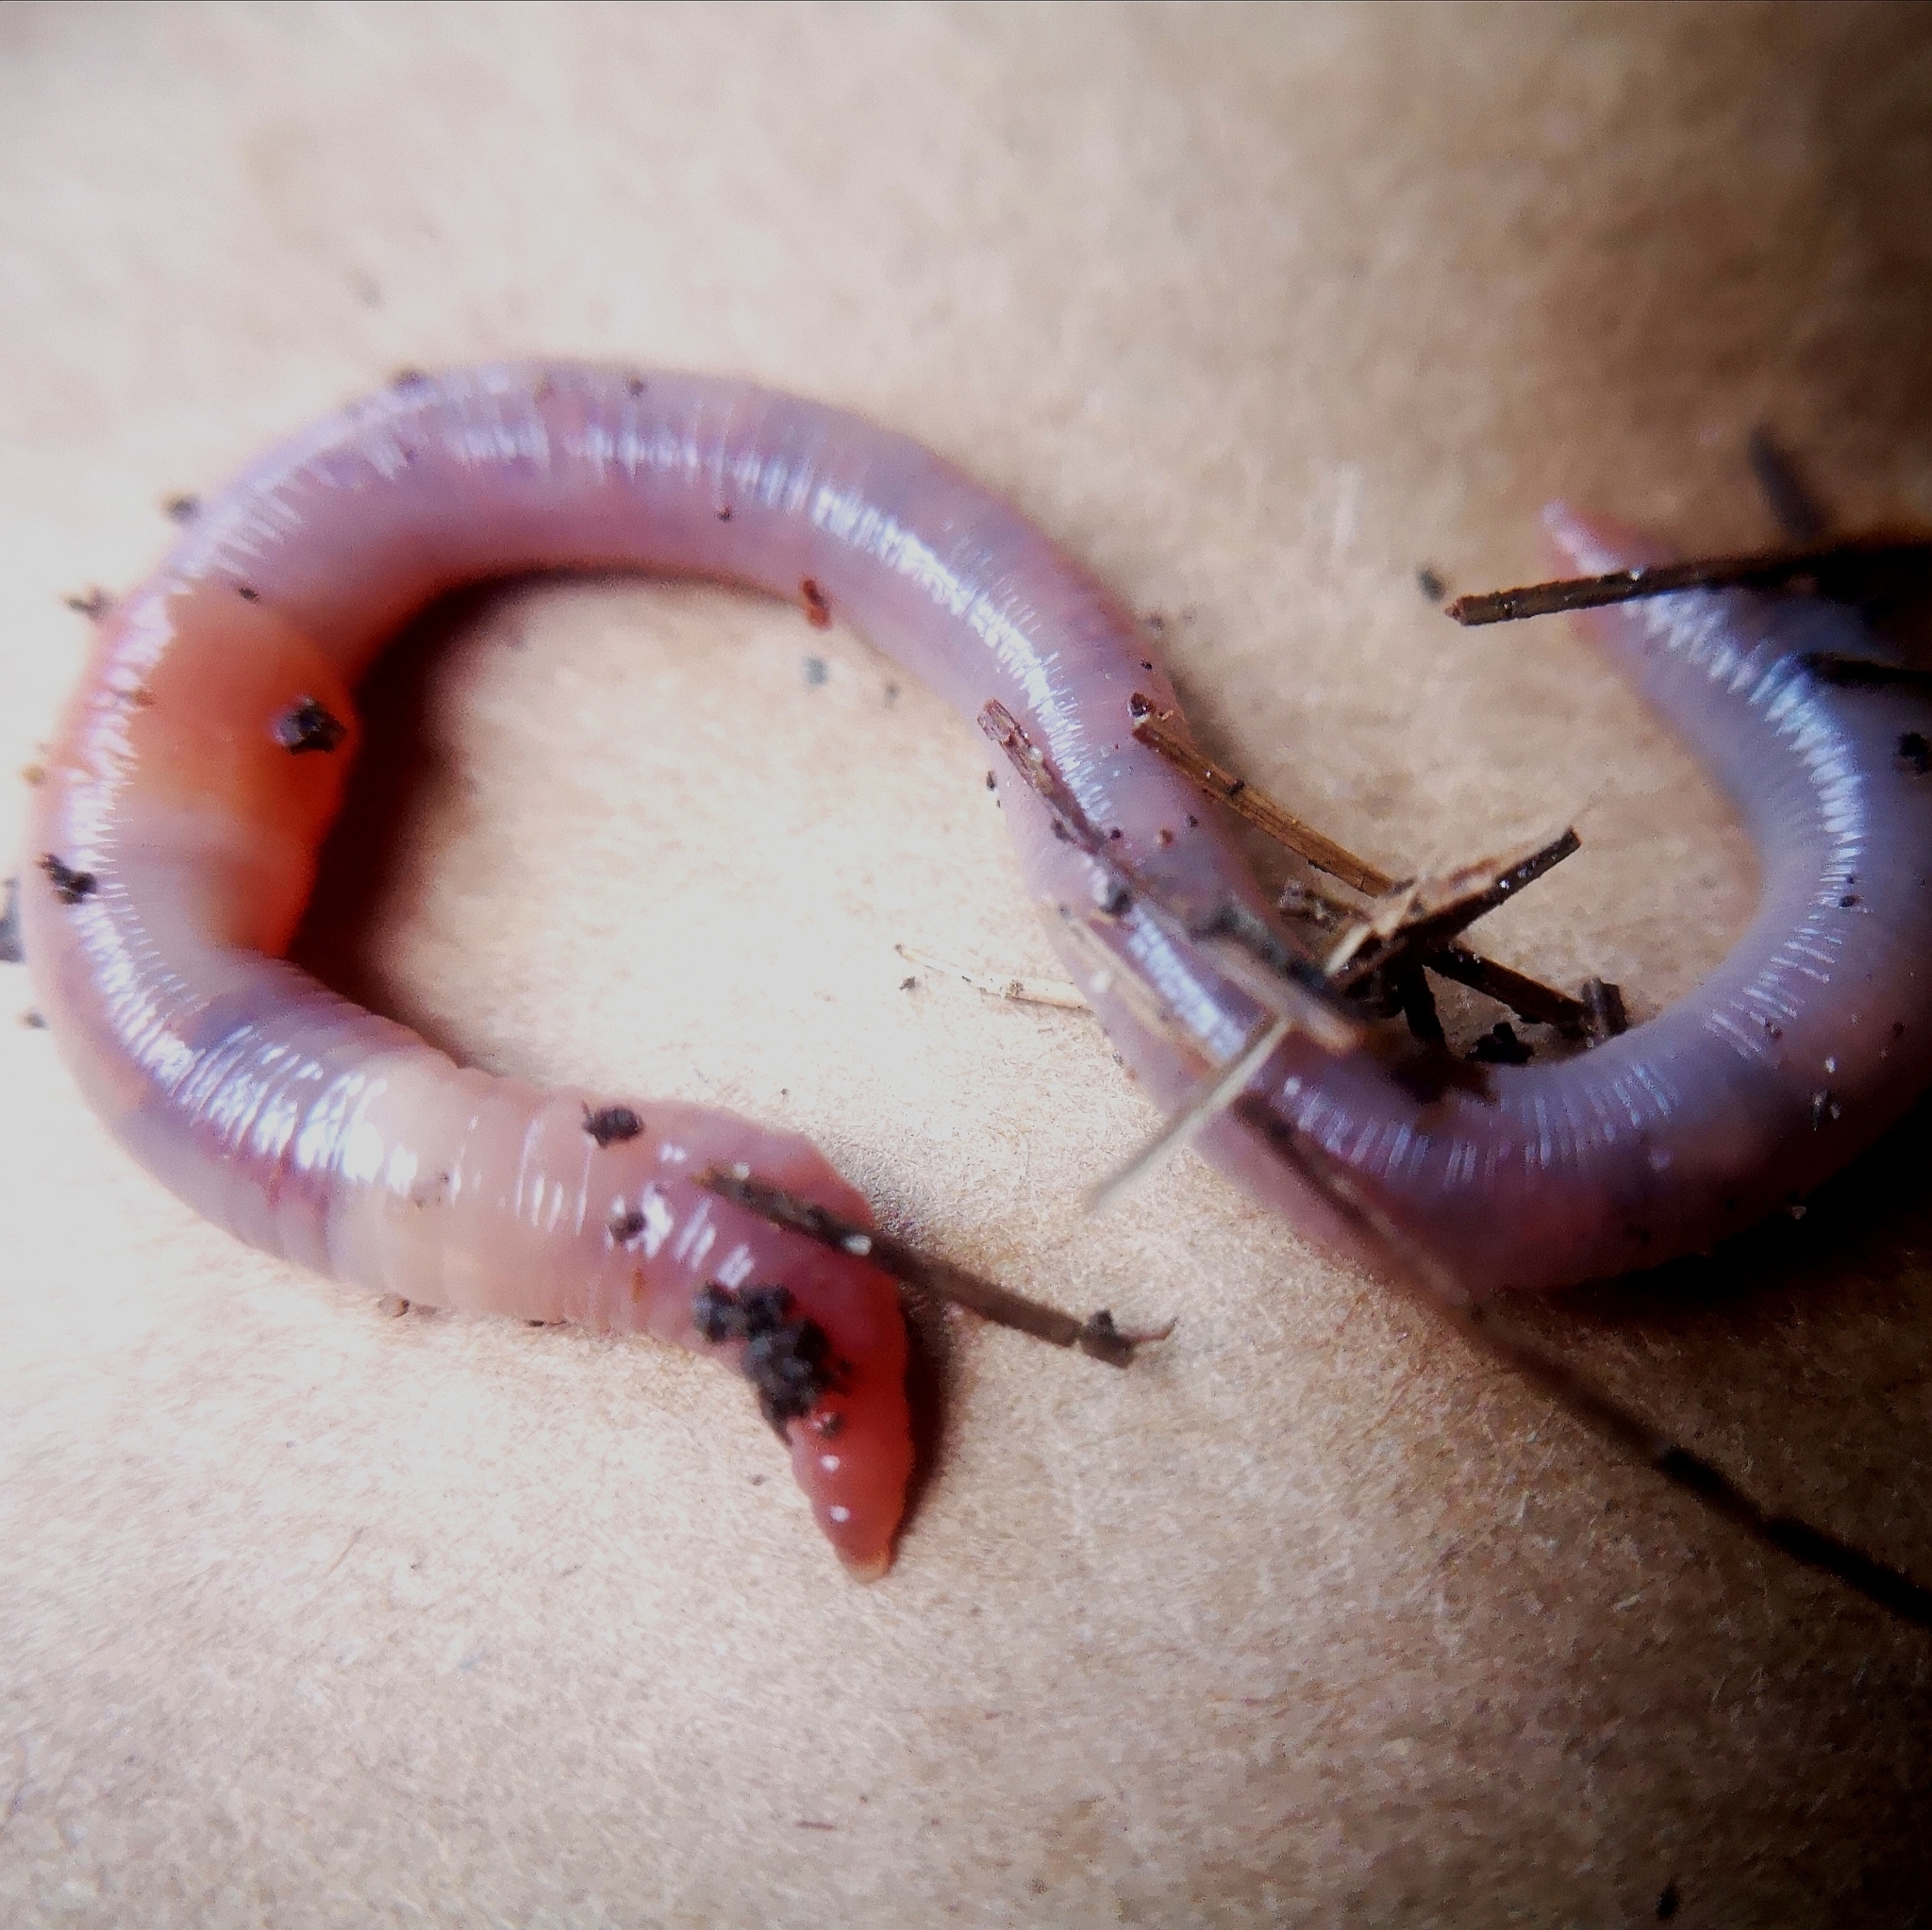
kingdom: Animalia
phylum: Annelida
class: Clitellata
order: Crassiclitellata
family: Lumbricidae
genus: Lumbricus
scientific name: Lumbricus terrestris
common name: Common earthworm
